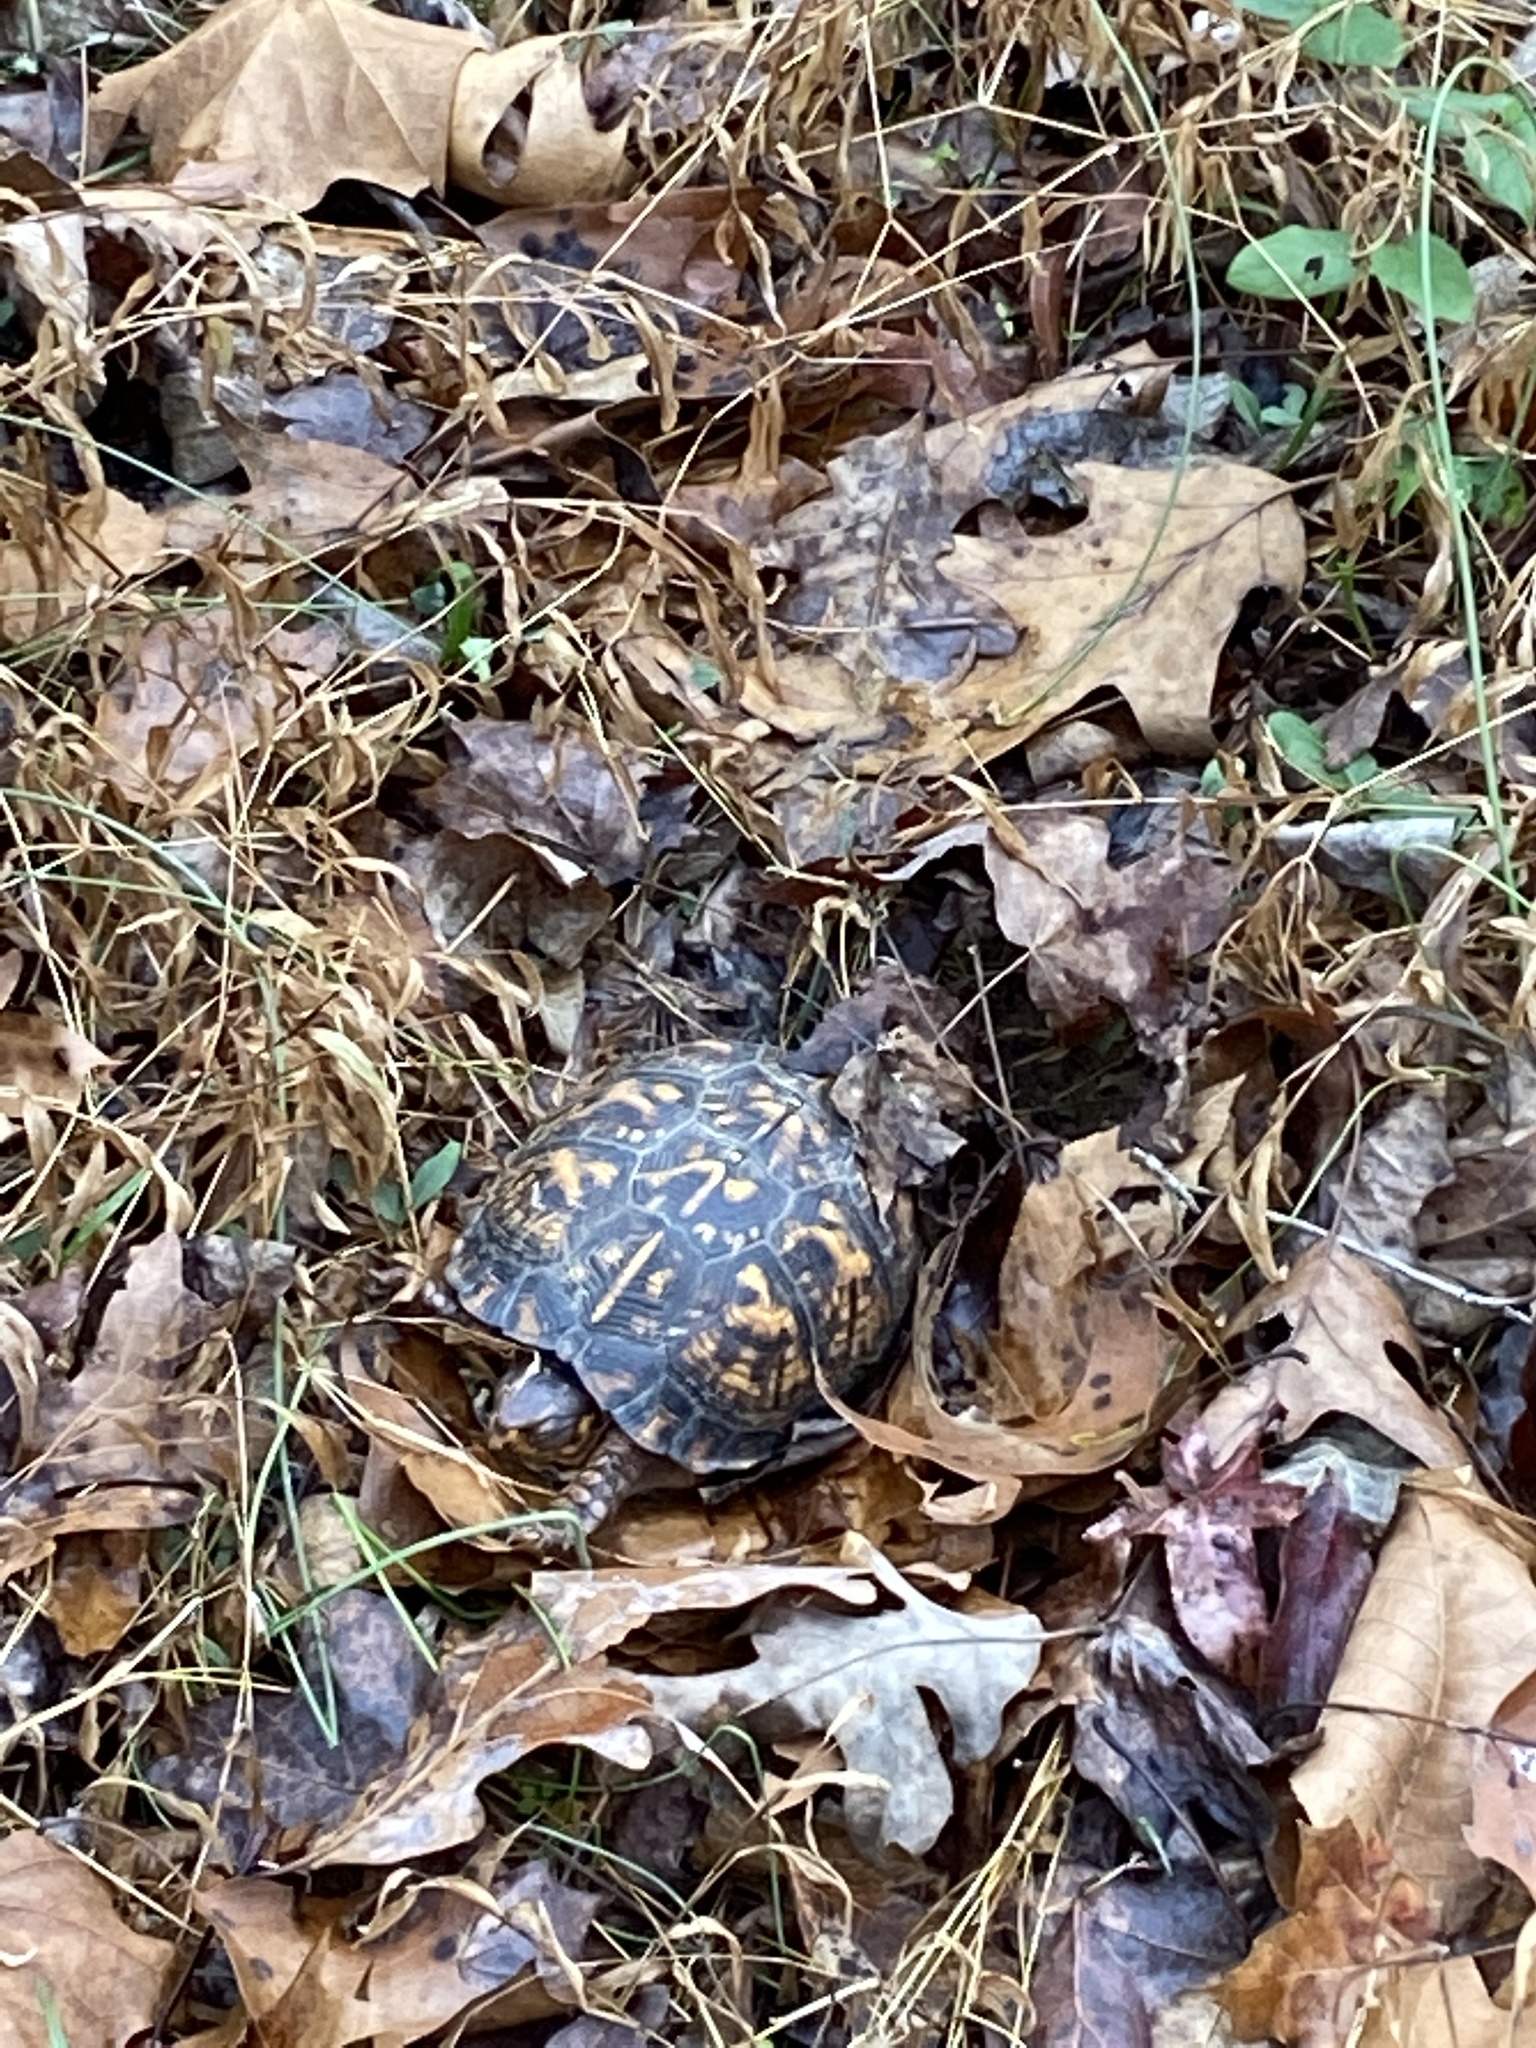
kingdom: Animalia
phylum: Chordata
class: Testudines
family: Emydidae
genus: Terrapene
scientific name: Terrapene carolina
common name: Common box turtle
